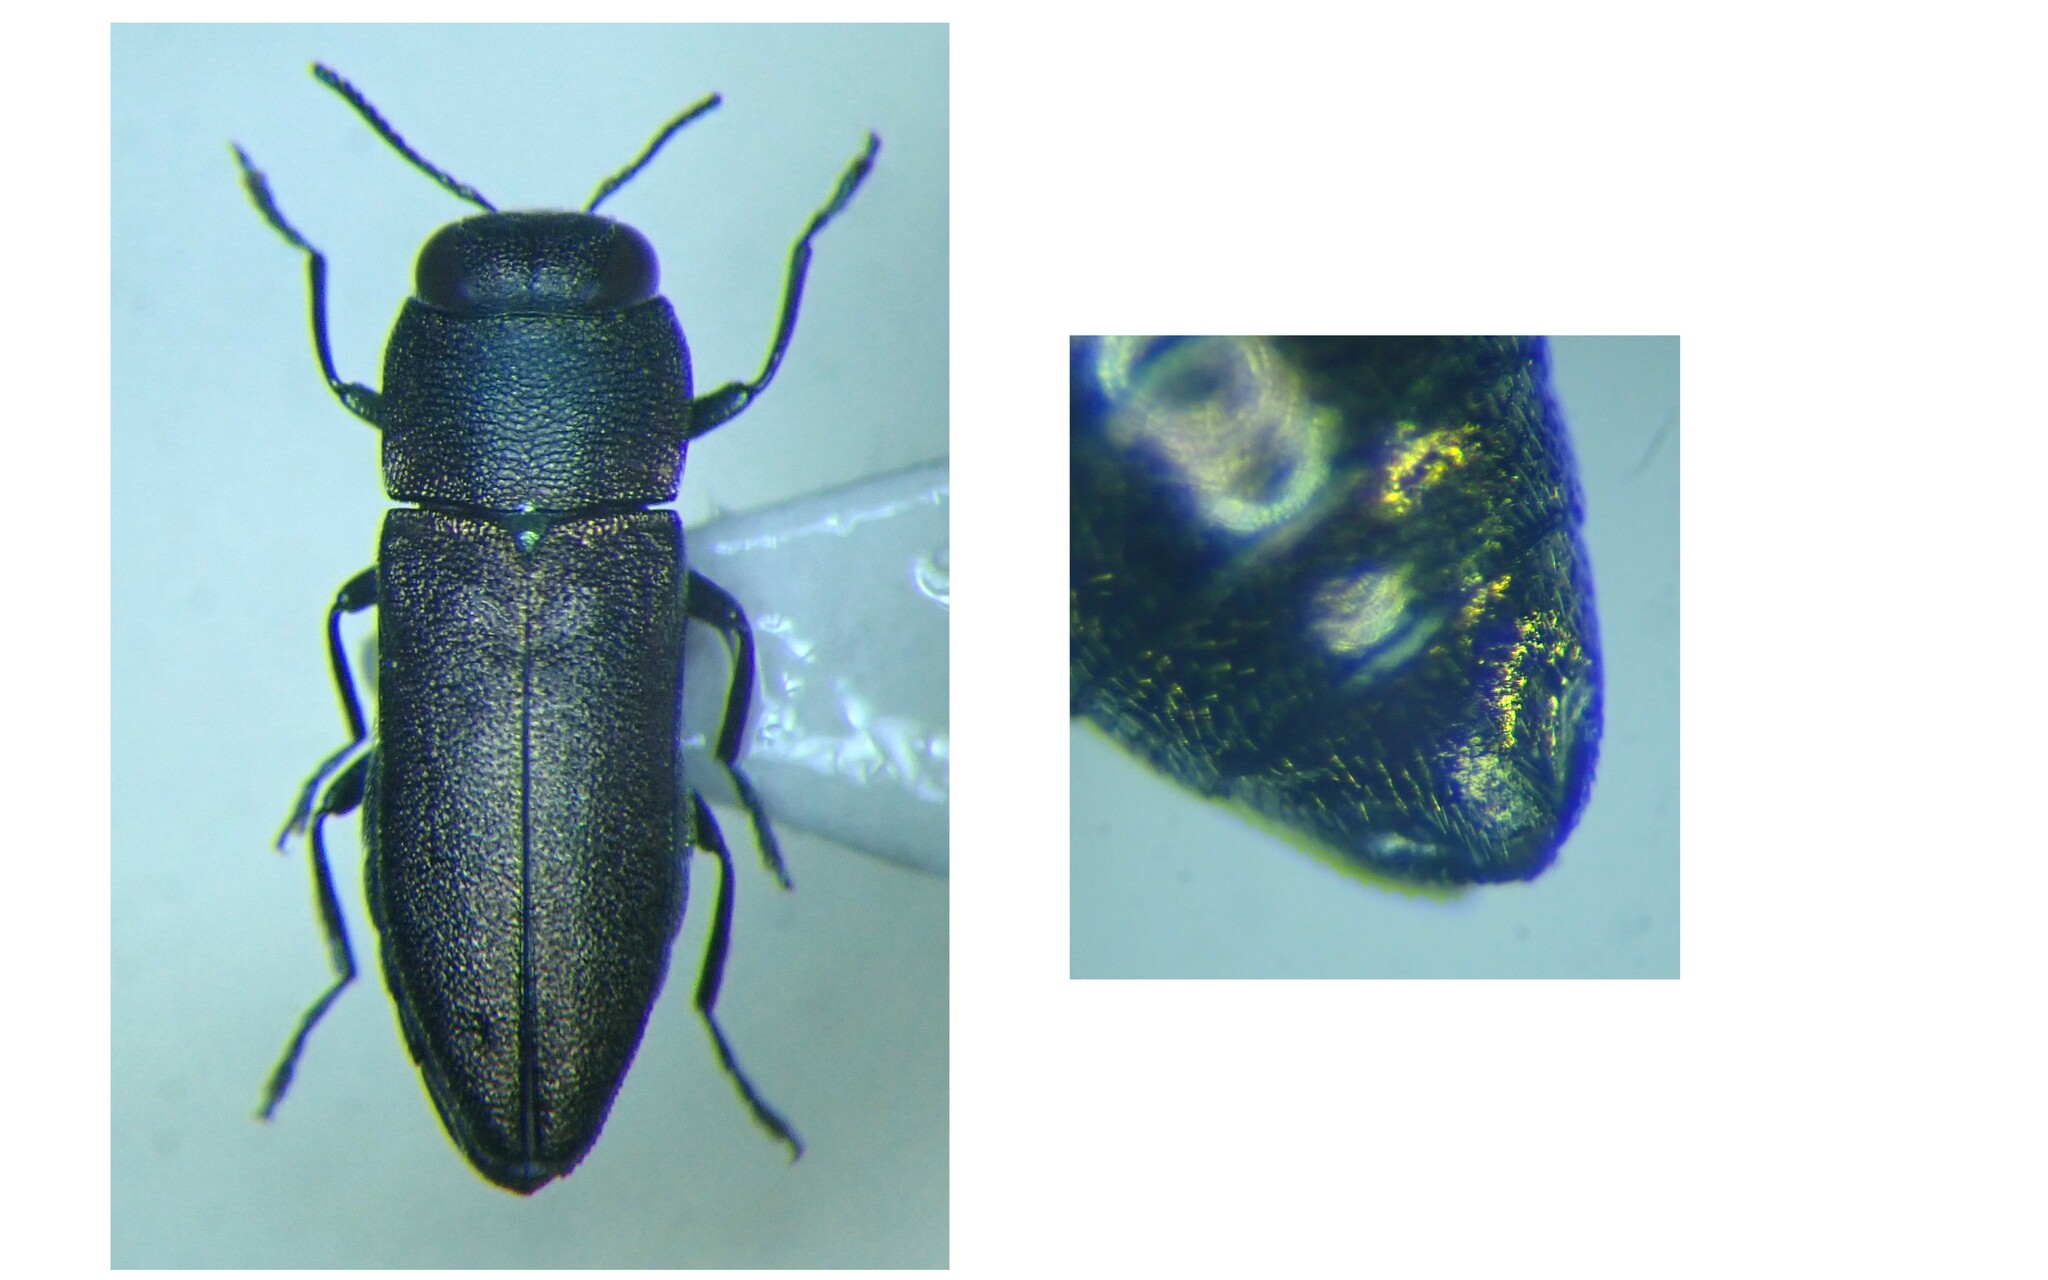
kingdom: Animalia
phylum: Arthropoda
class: Insecta
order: Coleoptera
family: Buprestidae
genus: Anthaxia
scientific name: Anthaxia millefolii
